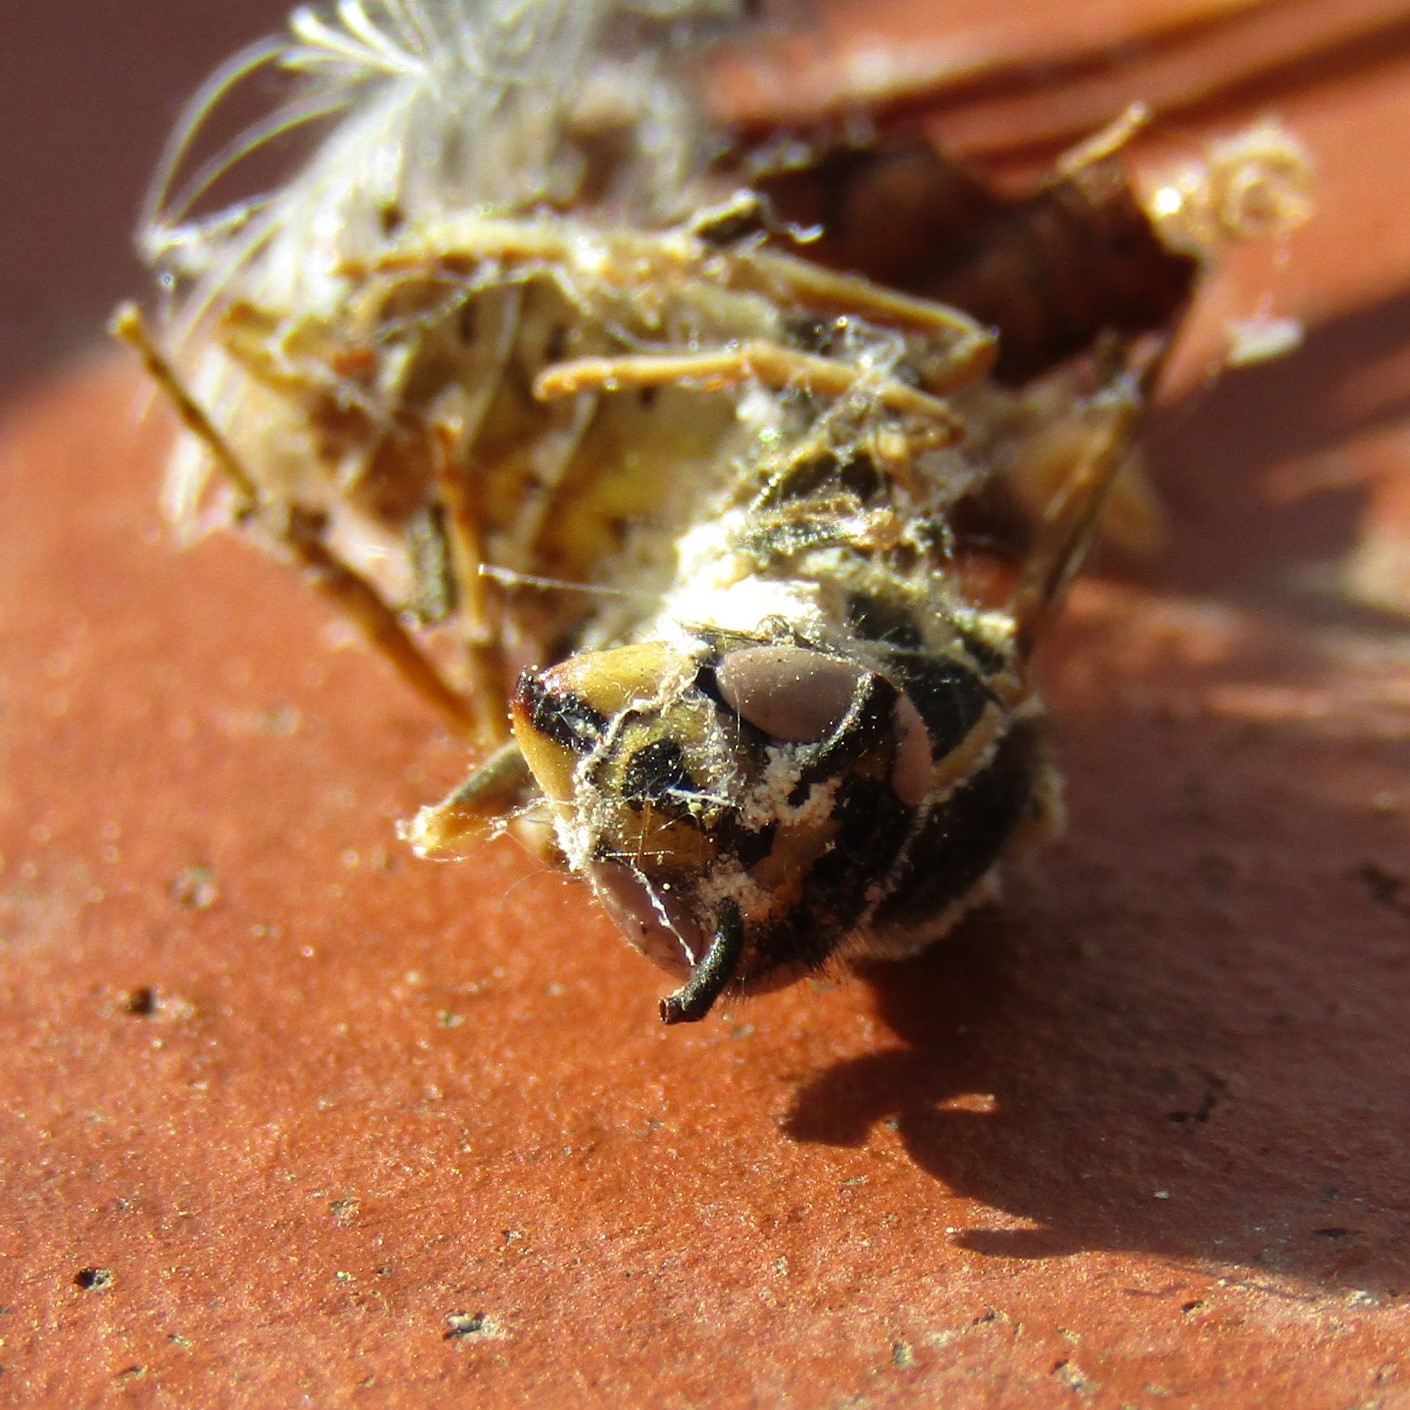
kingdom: Animalia
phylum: Arthropoda
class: Insecta
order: Hymenoptera
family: Vespidae
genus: Vespula
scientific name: Vespula vulgaris
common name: Common wasp
